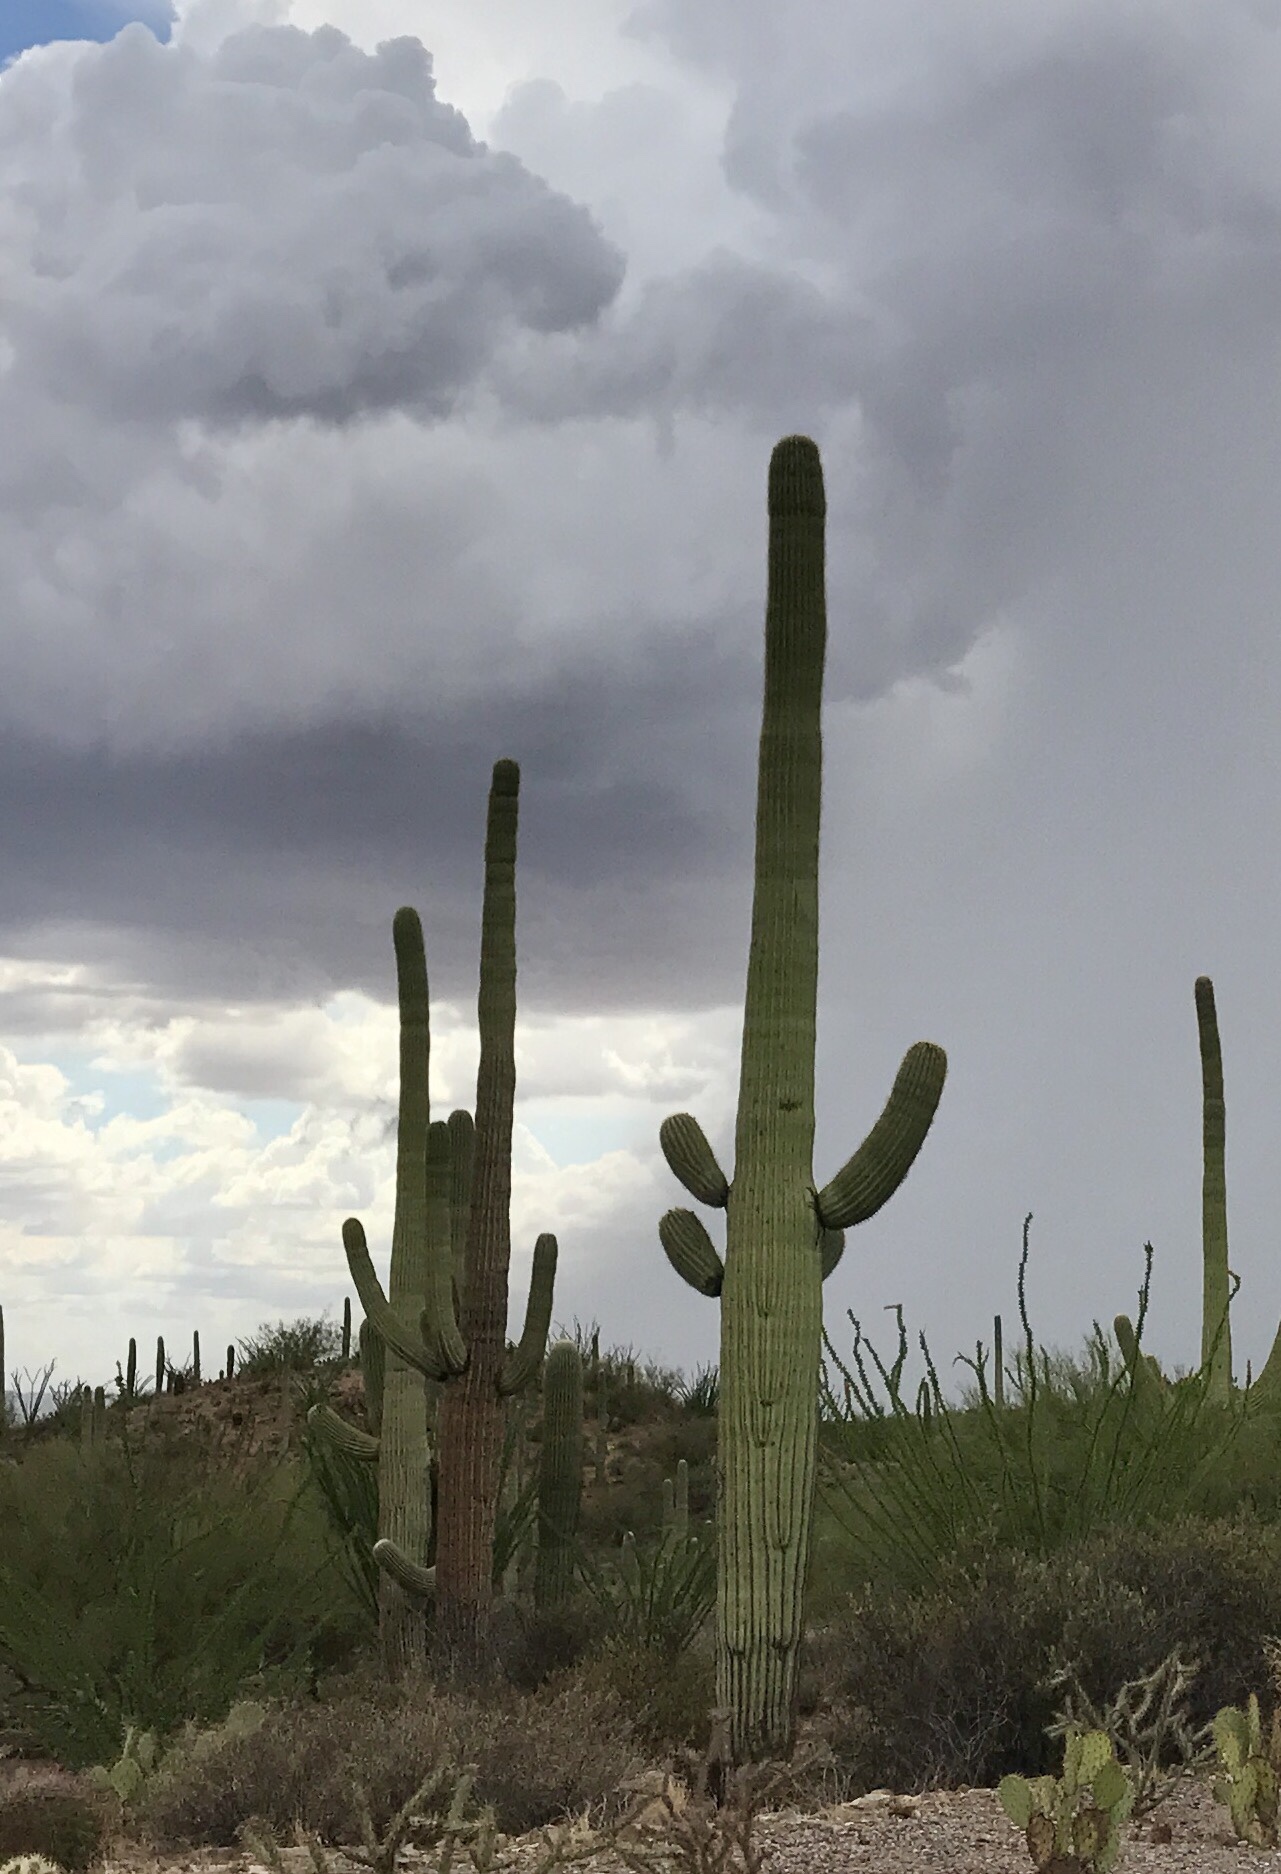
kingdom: Plantae
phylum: Tracheophyta
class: Magnoliopsida
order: Caryophyllales
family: Cactaceae
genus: Carnegiea
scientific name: Carnegiea gigantea
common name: Saguaro
